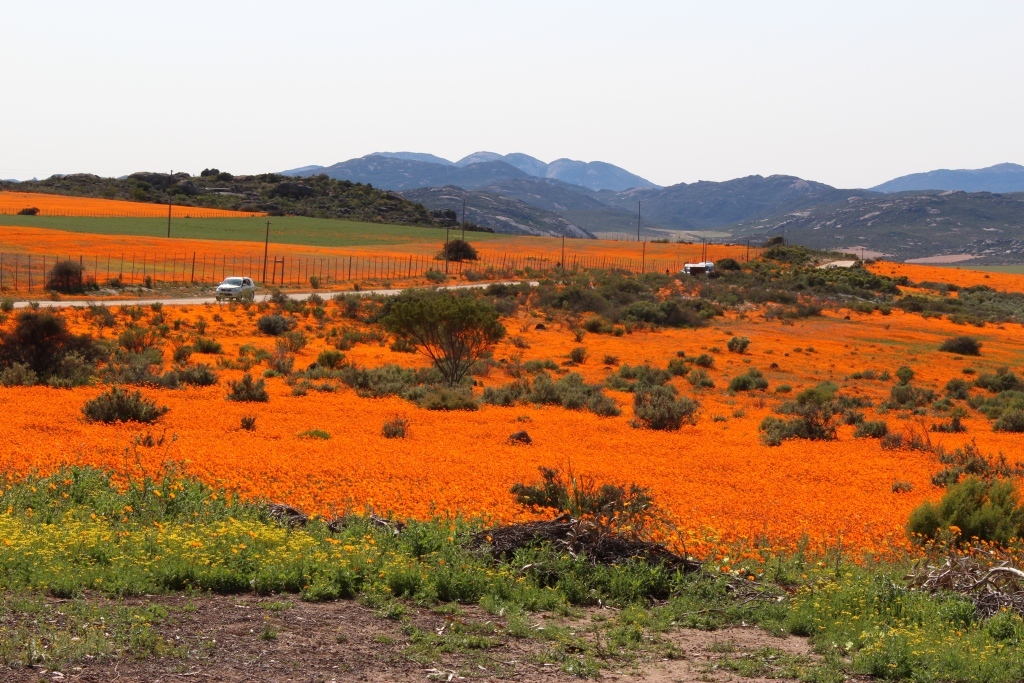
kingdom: Plantae
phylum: Tracheophyta
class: Magnoliopsida
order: Asterales
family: Asteraceae
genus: Dimorphotheca
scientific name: Dimorphotheca sinuata
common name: Glandular cape marigold
